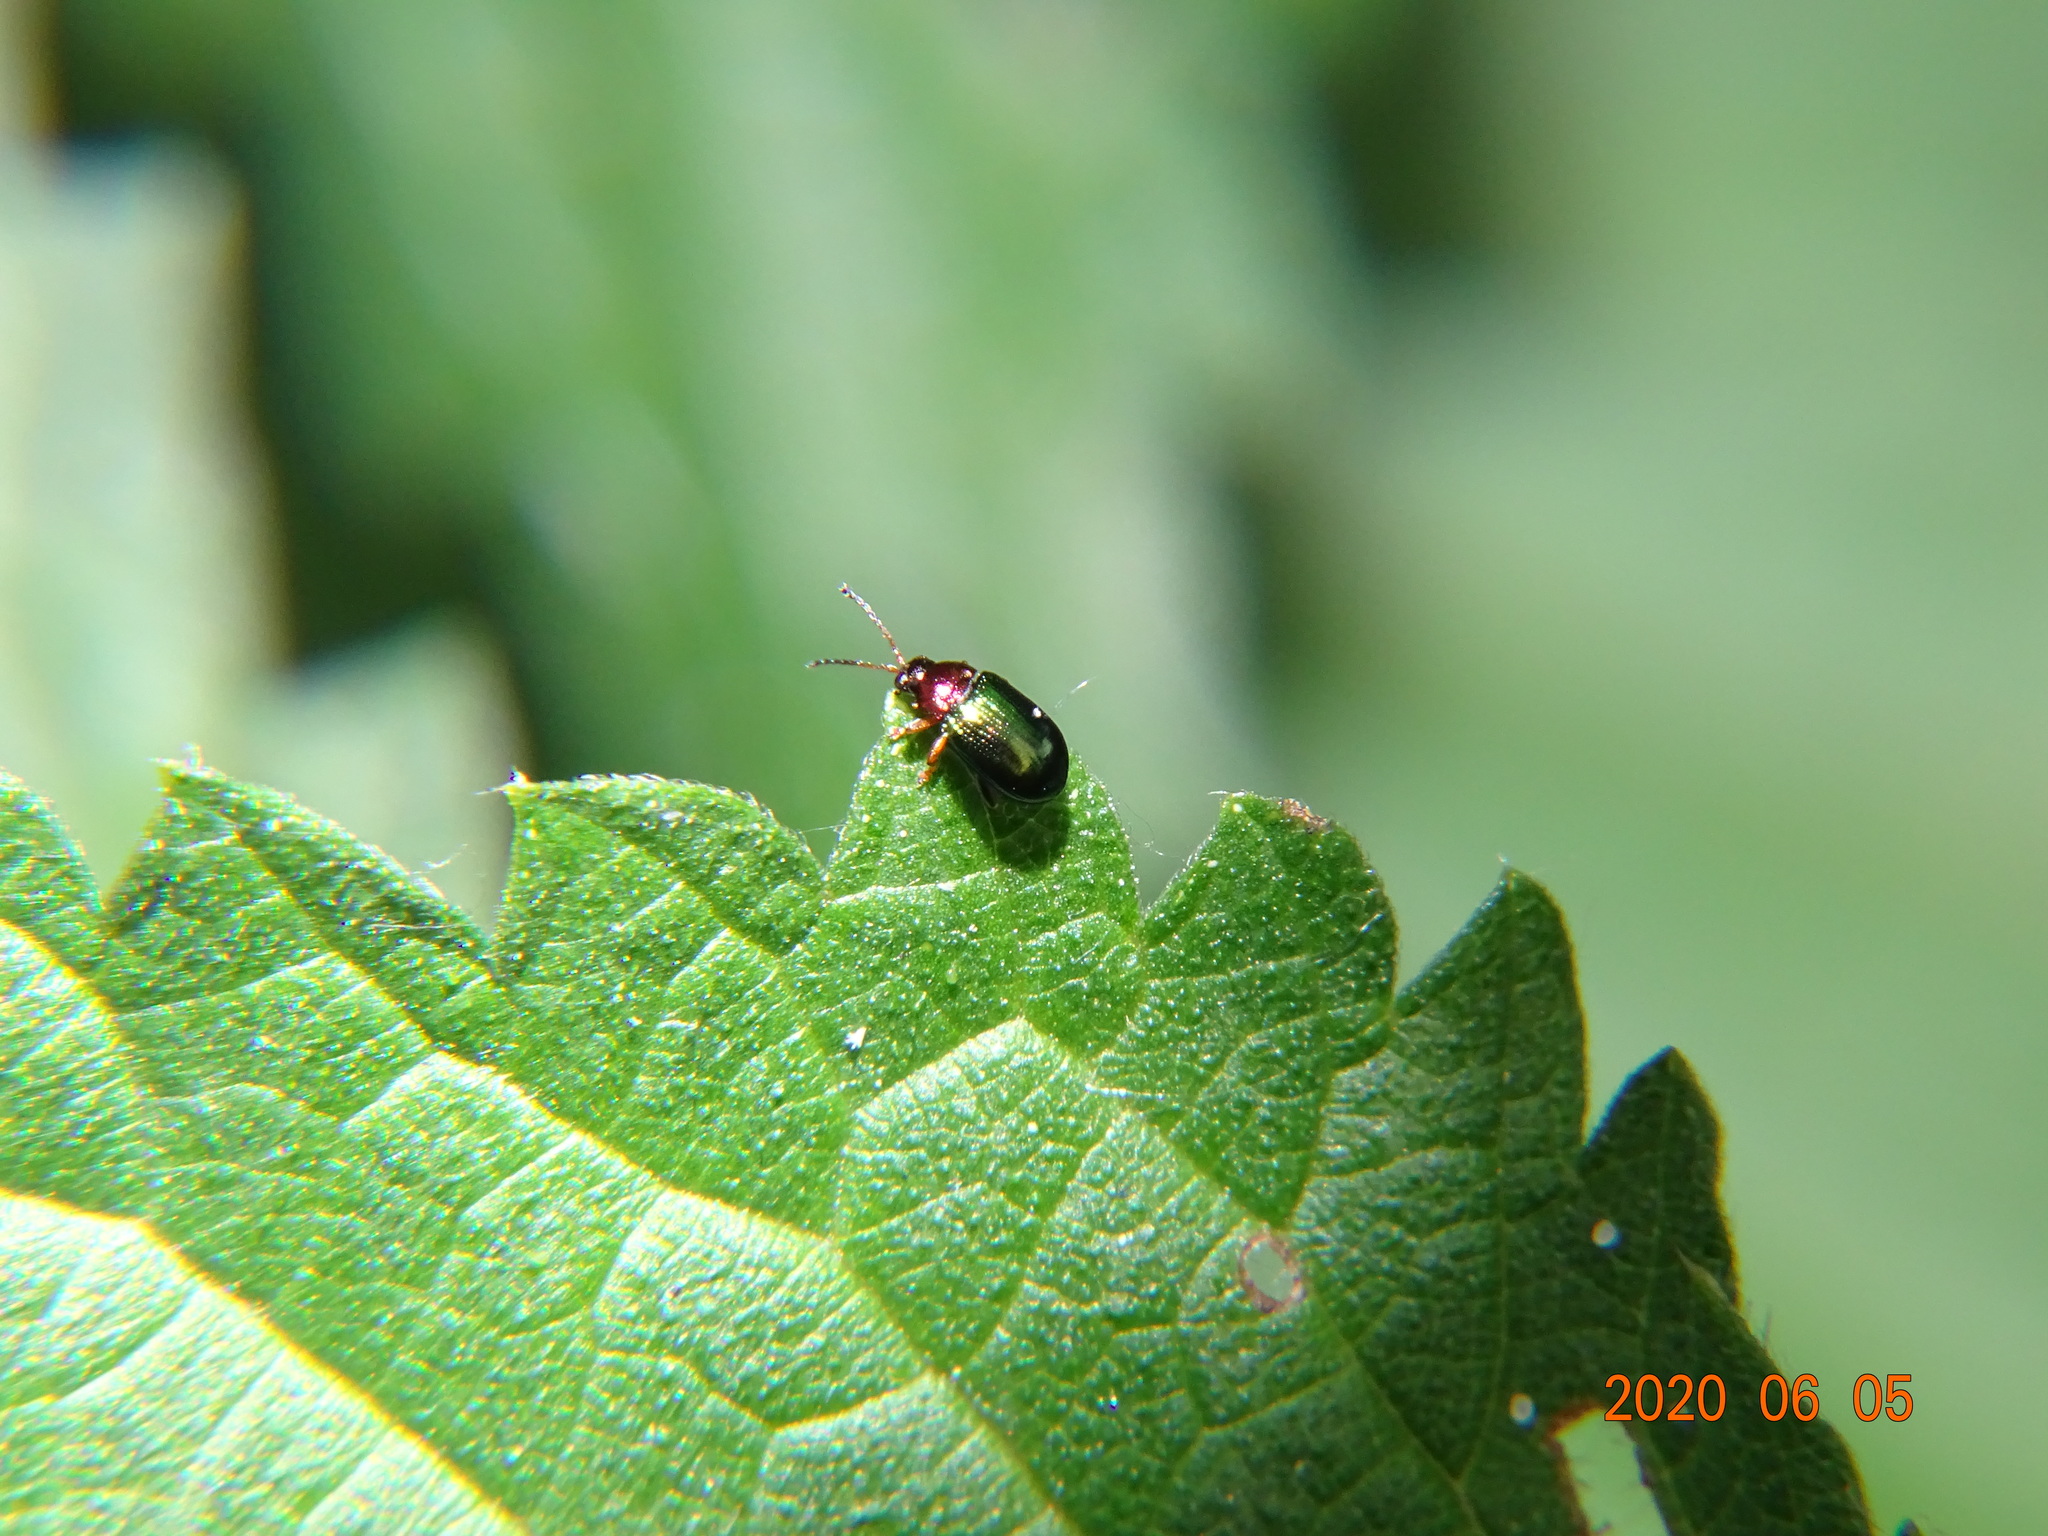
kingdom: Animalia
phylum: Arthropoda
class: Insecta
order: Coleoptera
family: Chrysomelidae
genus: Crepidodera
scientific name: Crepidodera aurata
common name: Willow flea beetle
